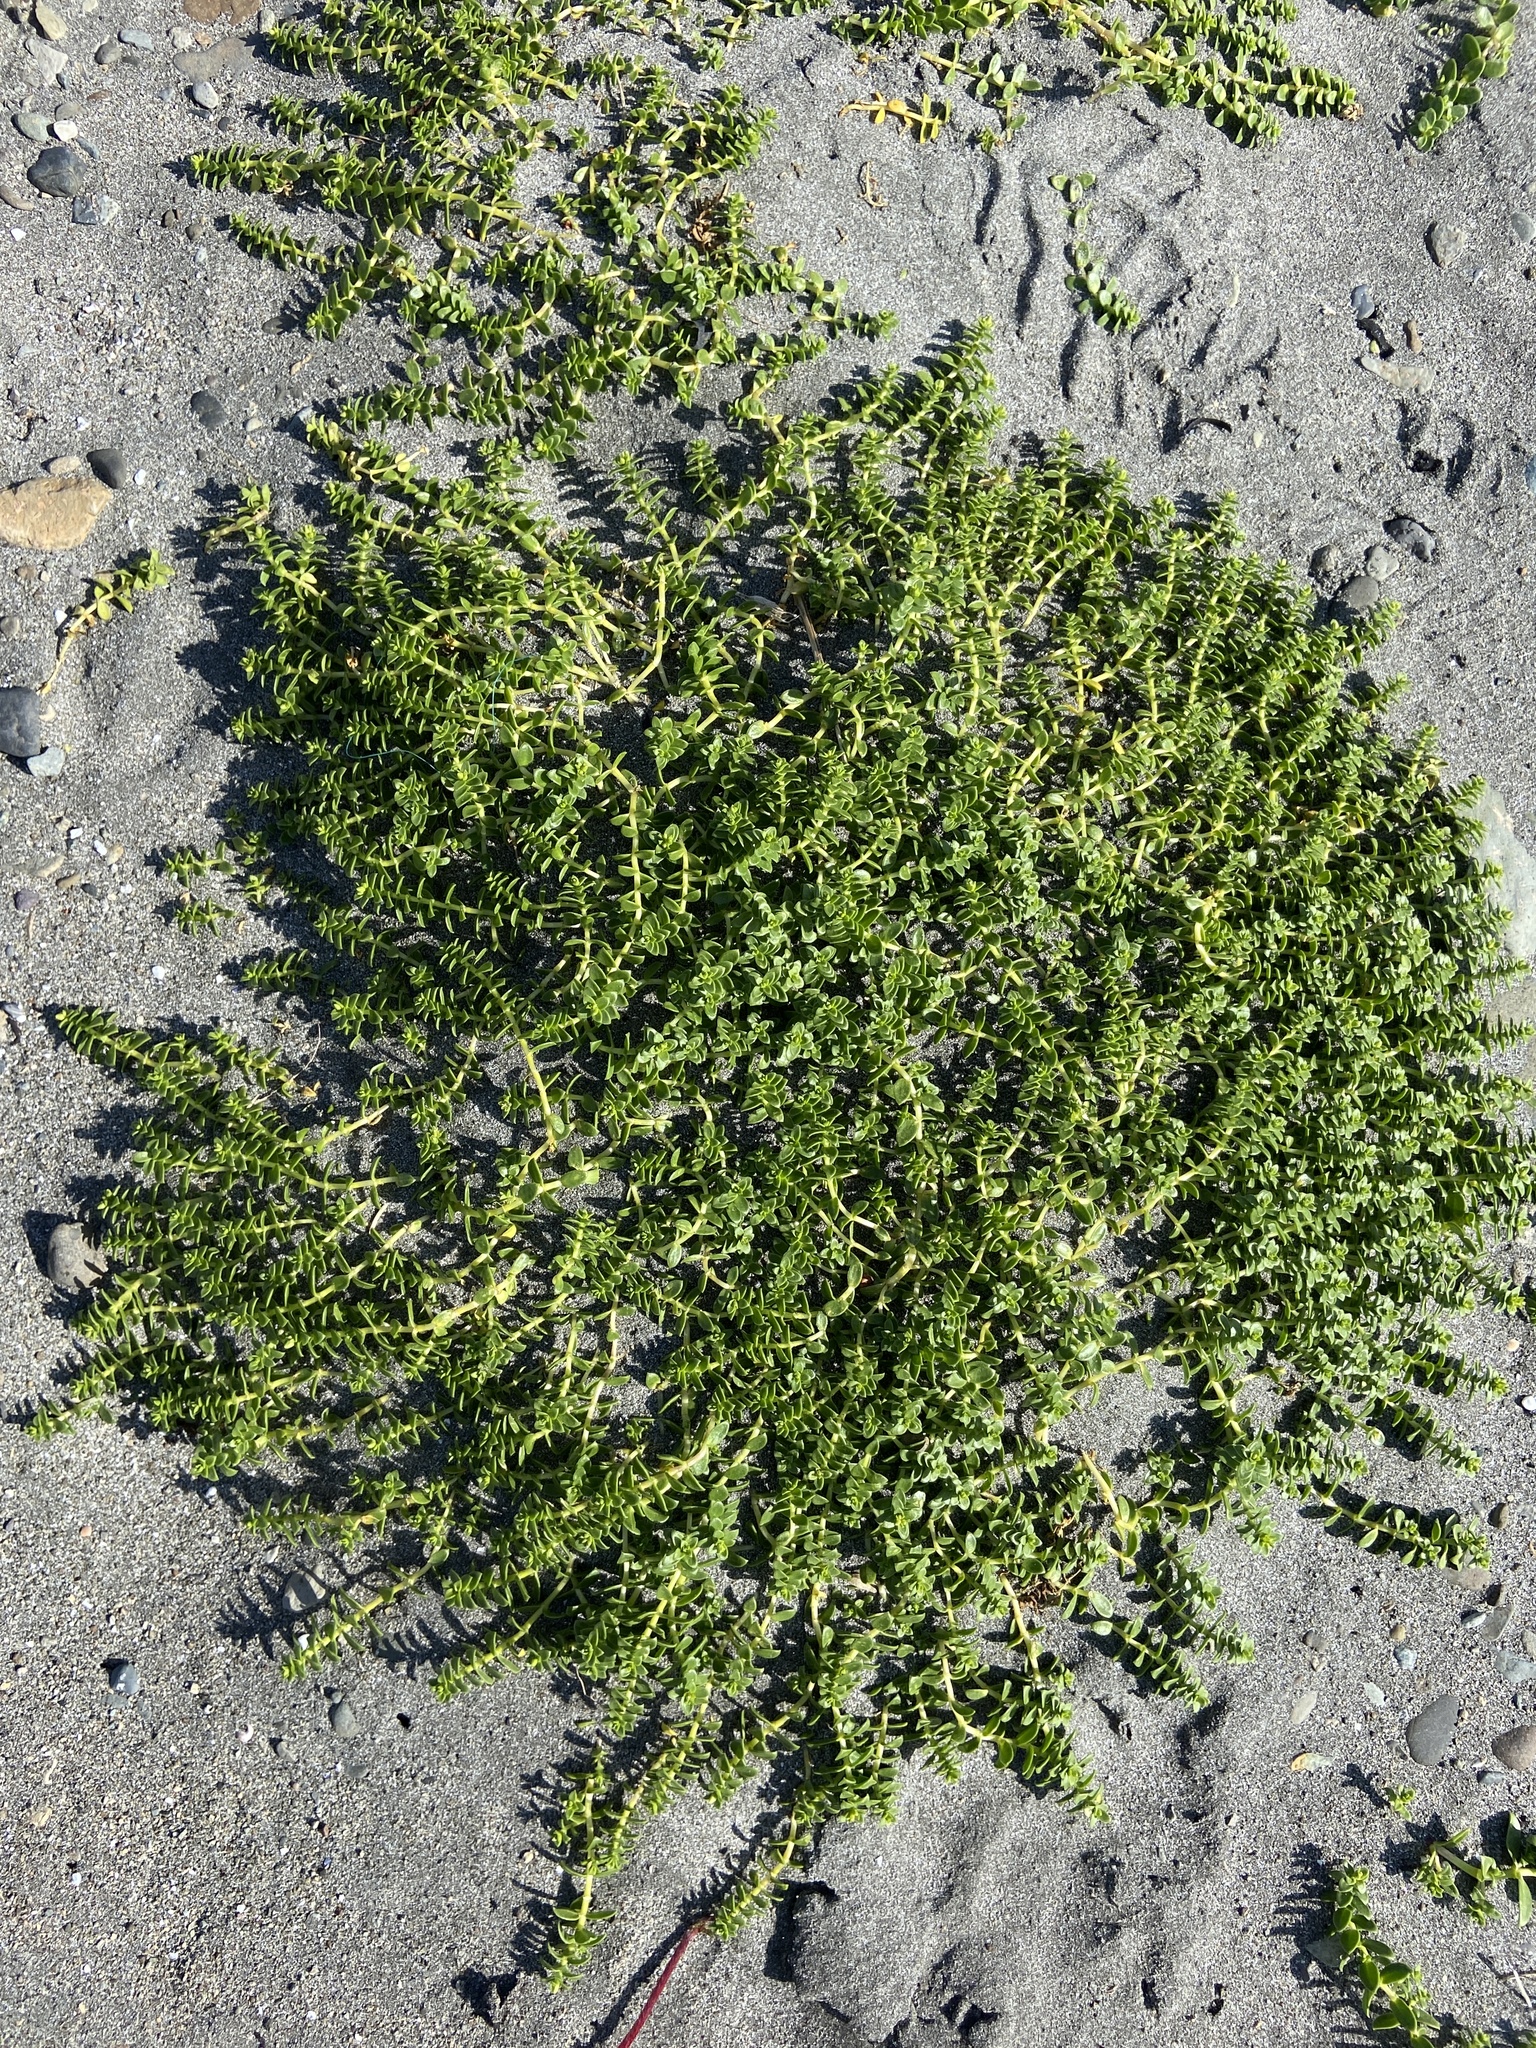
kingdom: Plantae
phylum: Tracheophyta
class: Magnoliopsida
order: Caryophyllales
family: Caryophyllaceae
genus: Honckenya
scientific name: Honckenya peploides
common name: Sea sandwort
